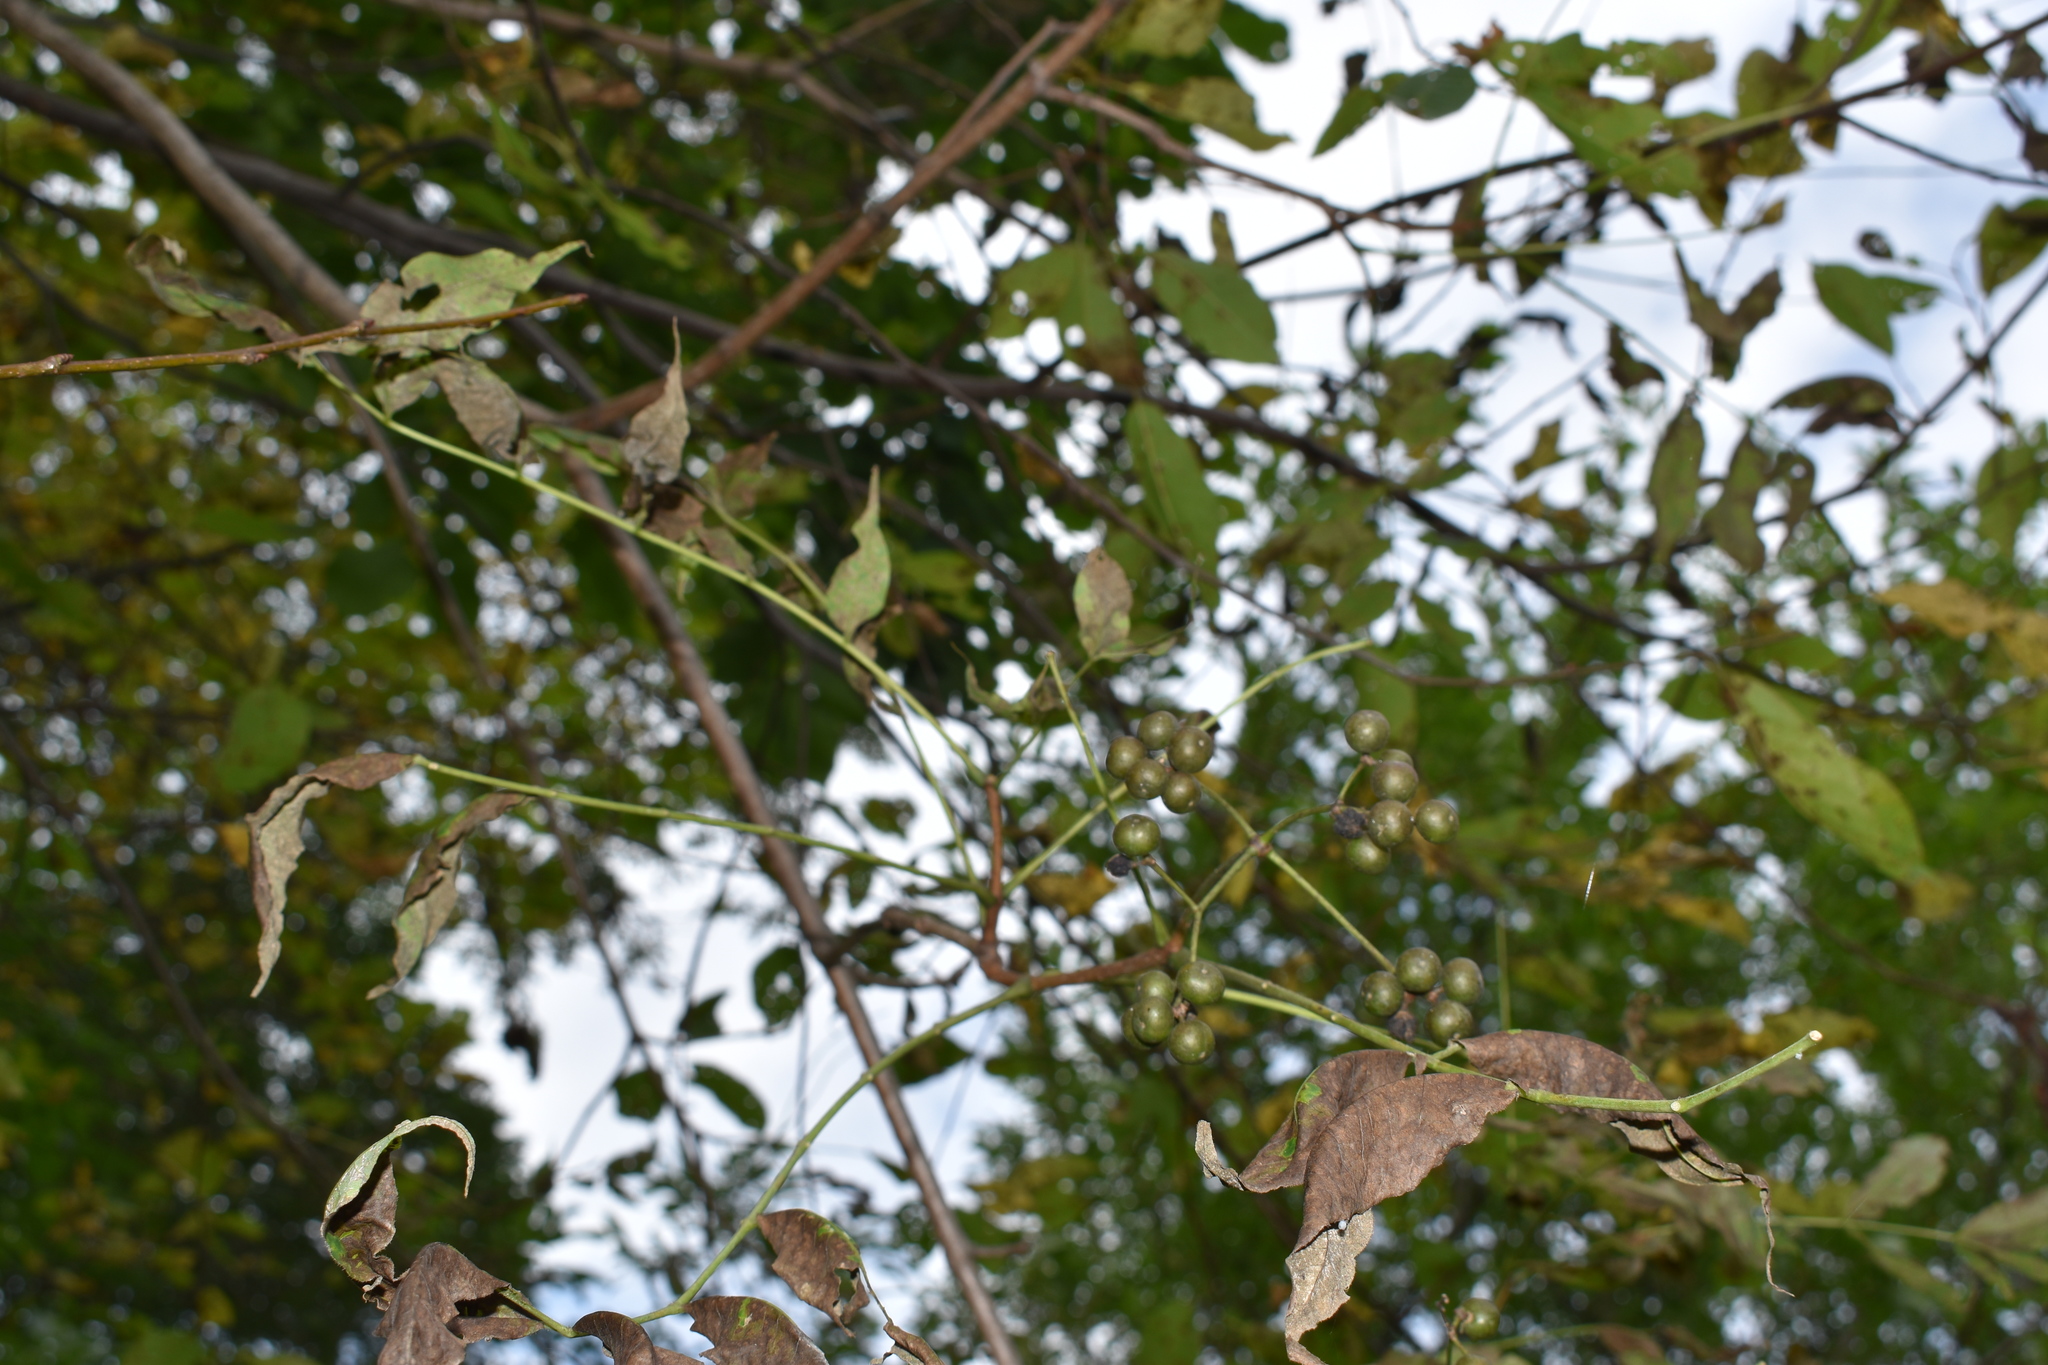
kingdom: Plantae
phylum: Tracheophyta
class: Magnoliopsida
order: Sapindales
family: Rutaceae
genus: Phellodendron
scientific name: Phellodendron amurense
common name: Amur corktree
